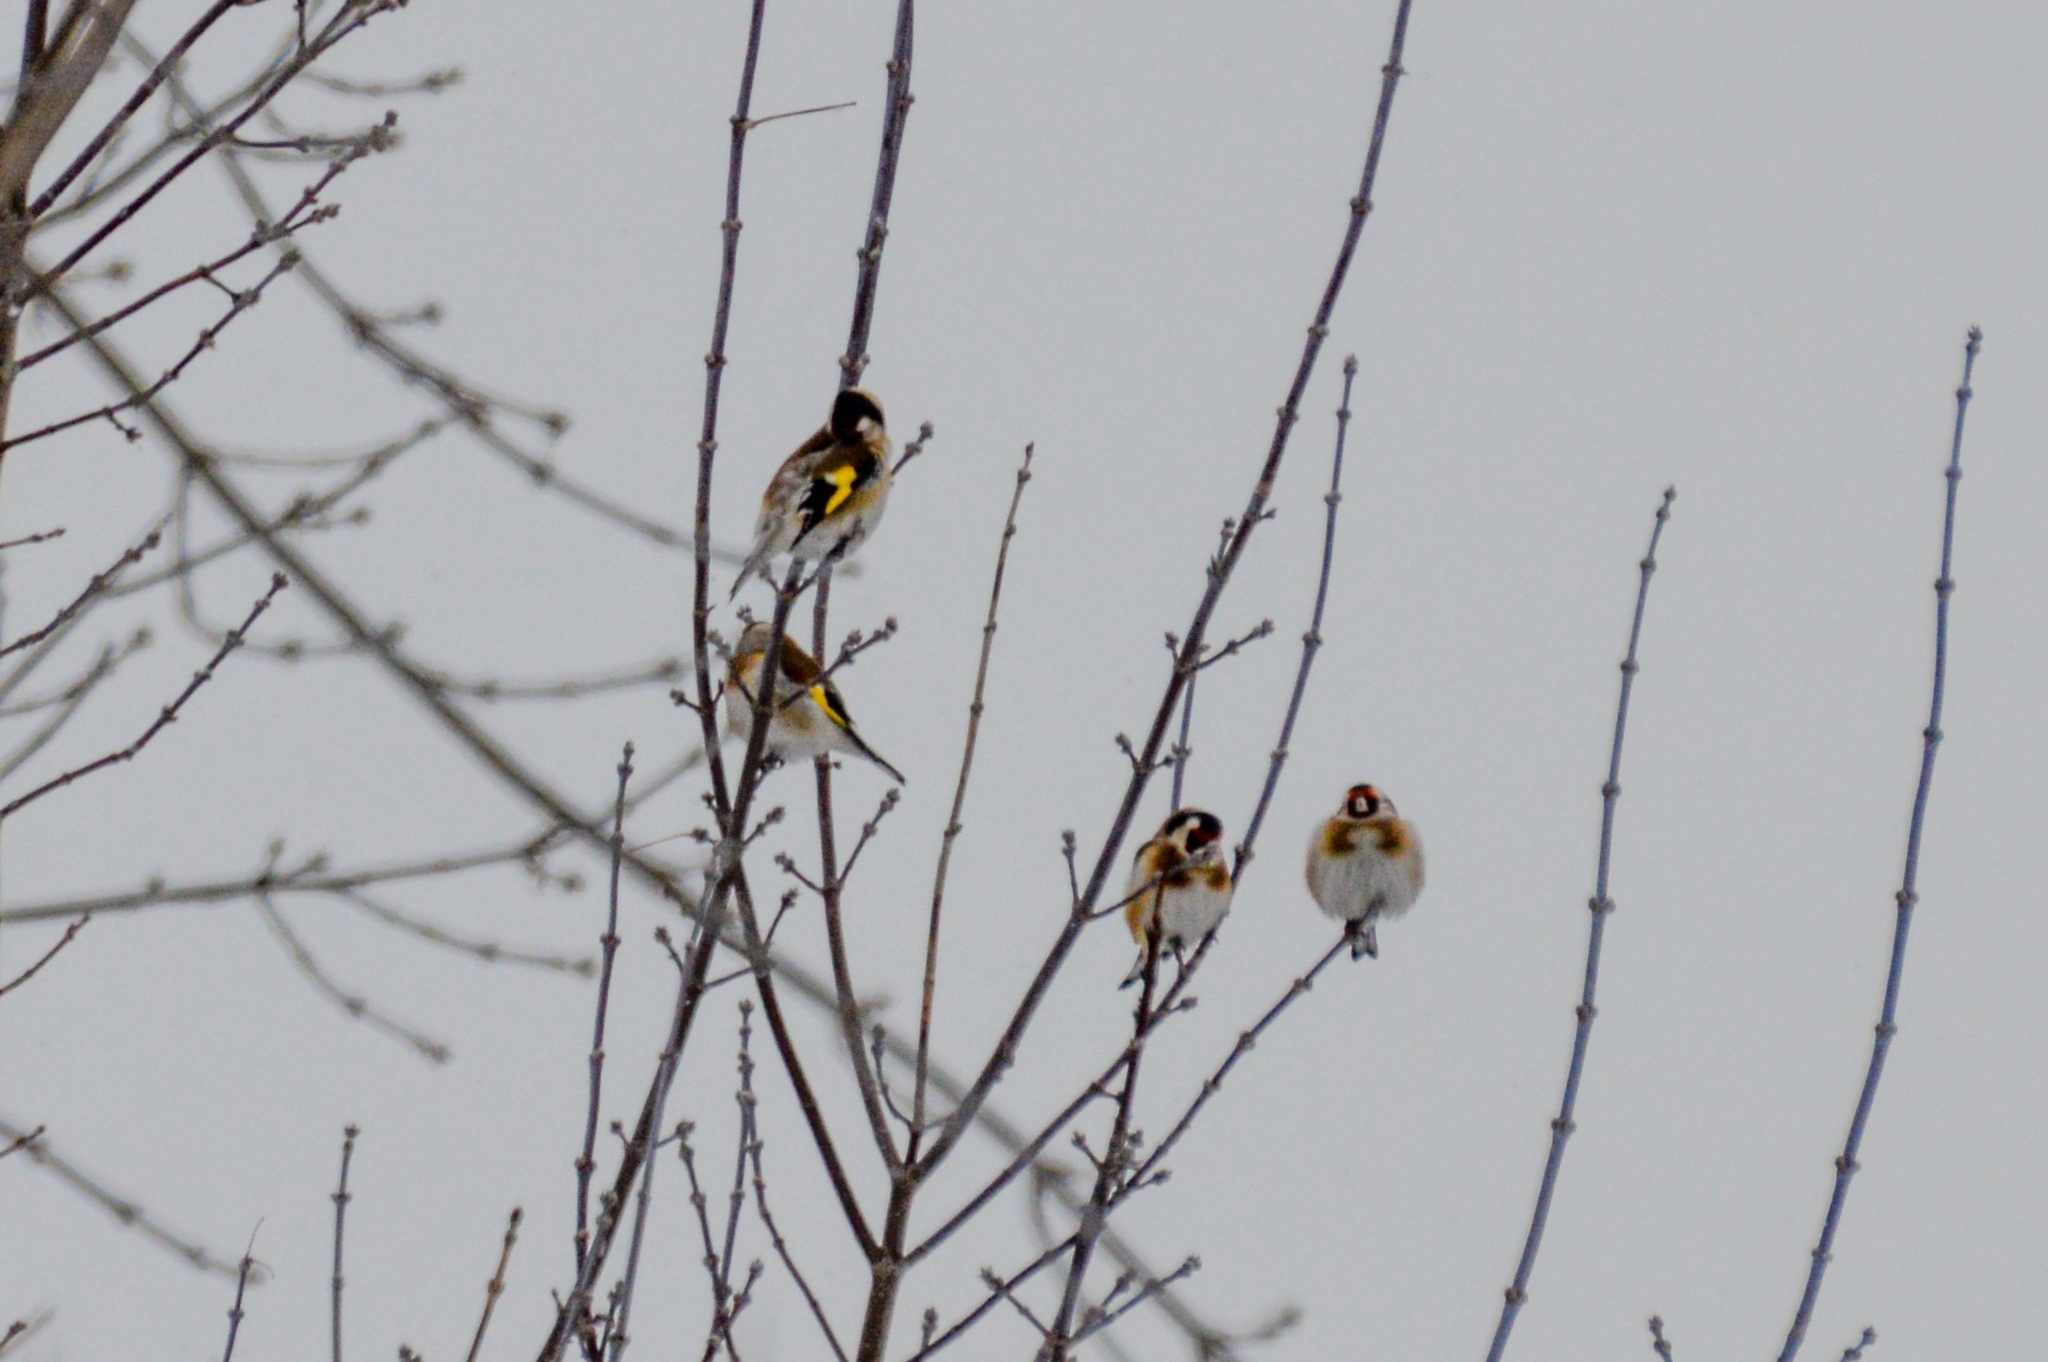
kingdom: Animalia
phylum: Chordata
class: Aves
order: Passeriformes
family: Fringillidae
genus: Carduelis
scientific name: Carduelis carduelis
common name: European goldfinch
